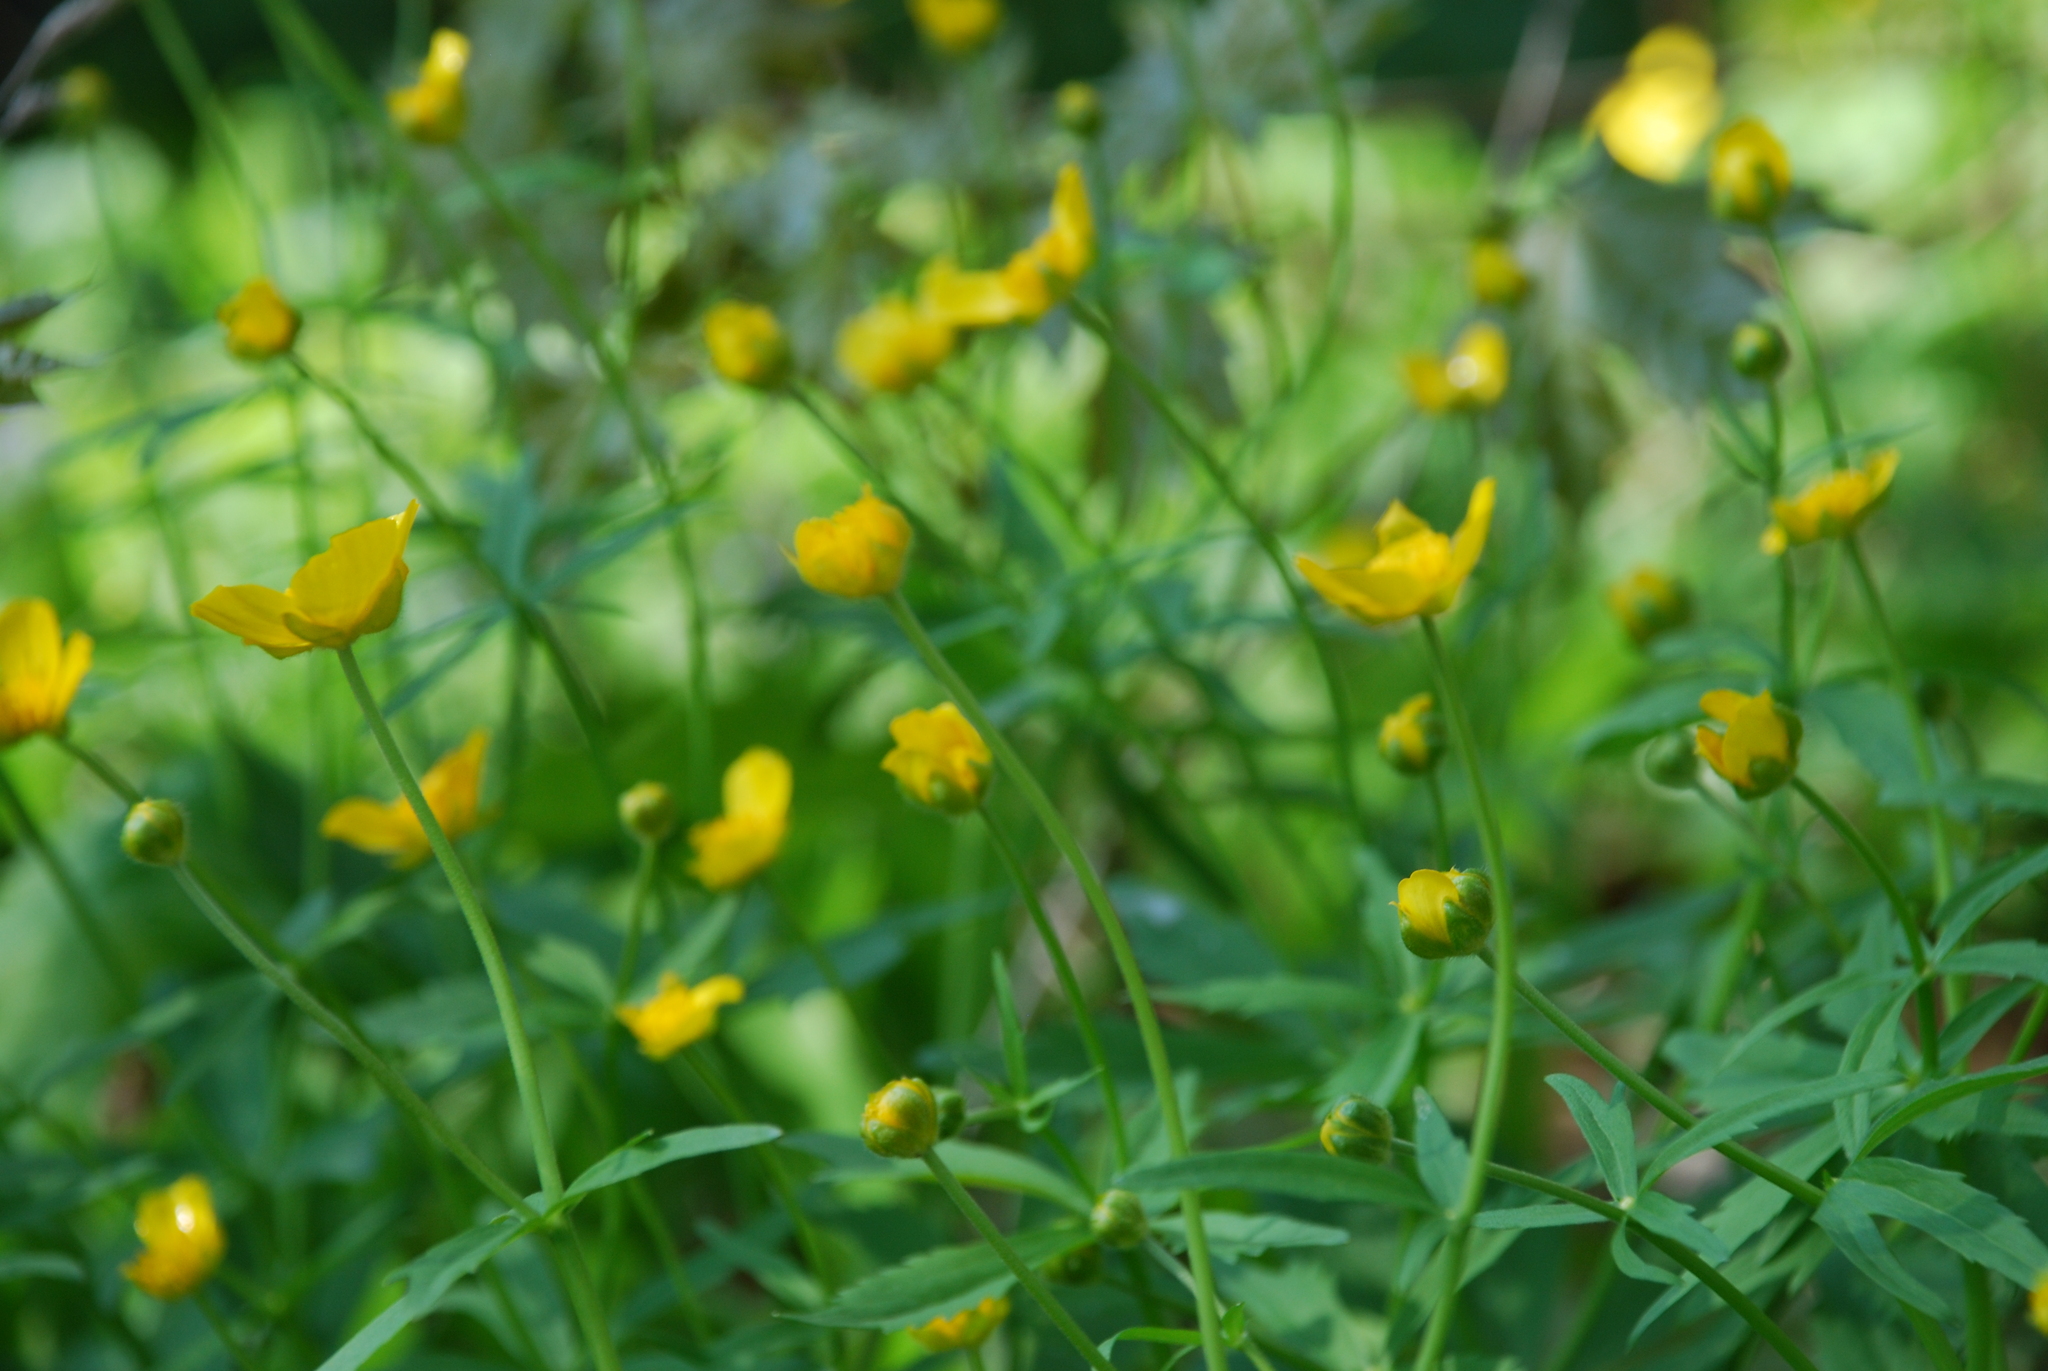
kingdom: Plantae
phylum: Tracheophyta
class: Magnoliopsida
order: Ranunculales
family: Ranunculaceae
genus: Ranunculus
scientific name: Ranunculus cassubicus
